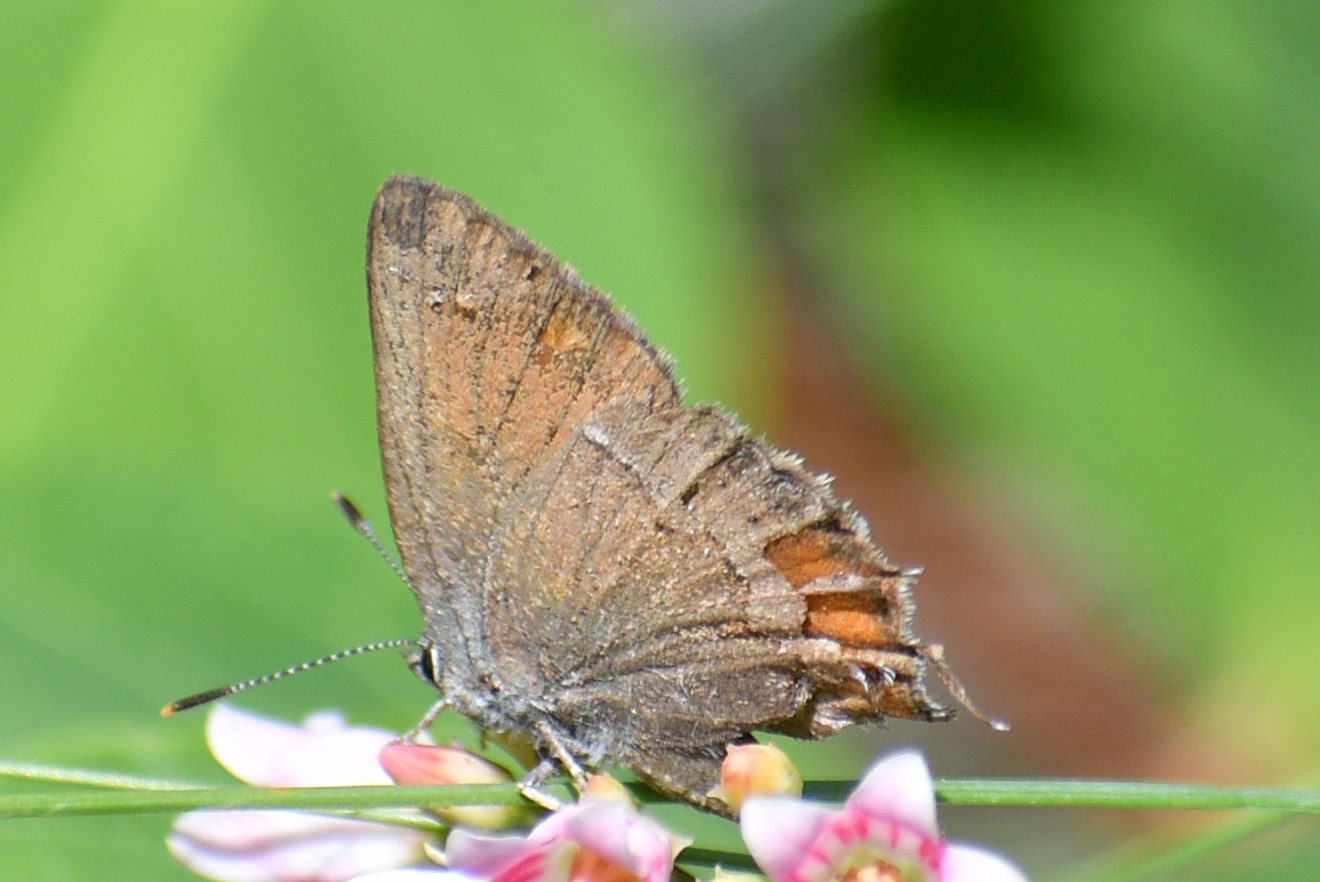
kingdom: Animalia
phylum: Arthropoda
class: Insecta
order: Lepidoptera
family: Lycaenidae
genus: Mitoura
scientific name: Mitoura gryneus
